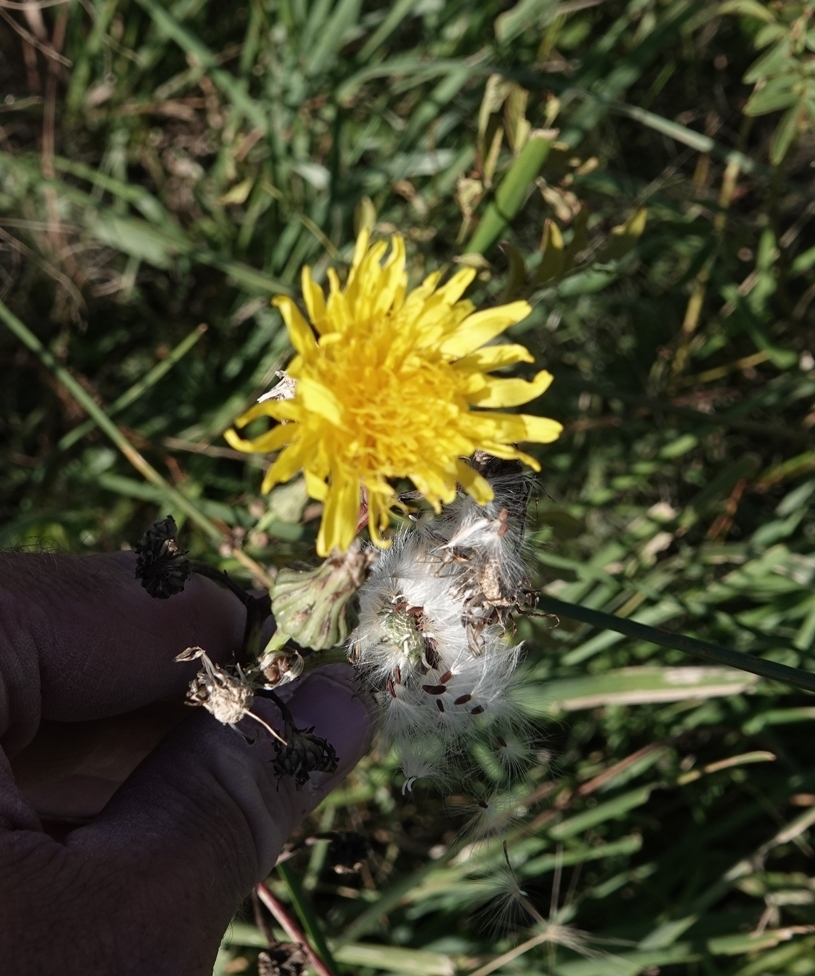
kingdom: Plantae
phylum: Tracheophyta
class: Magnoliopsida
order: Asterales
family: Asteraceae
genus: Sonchus
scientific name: Sonchus arvensis
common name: Perennial sow-thistle
